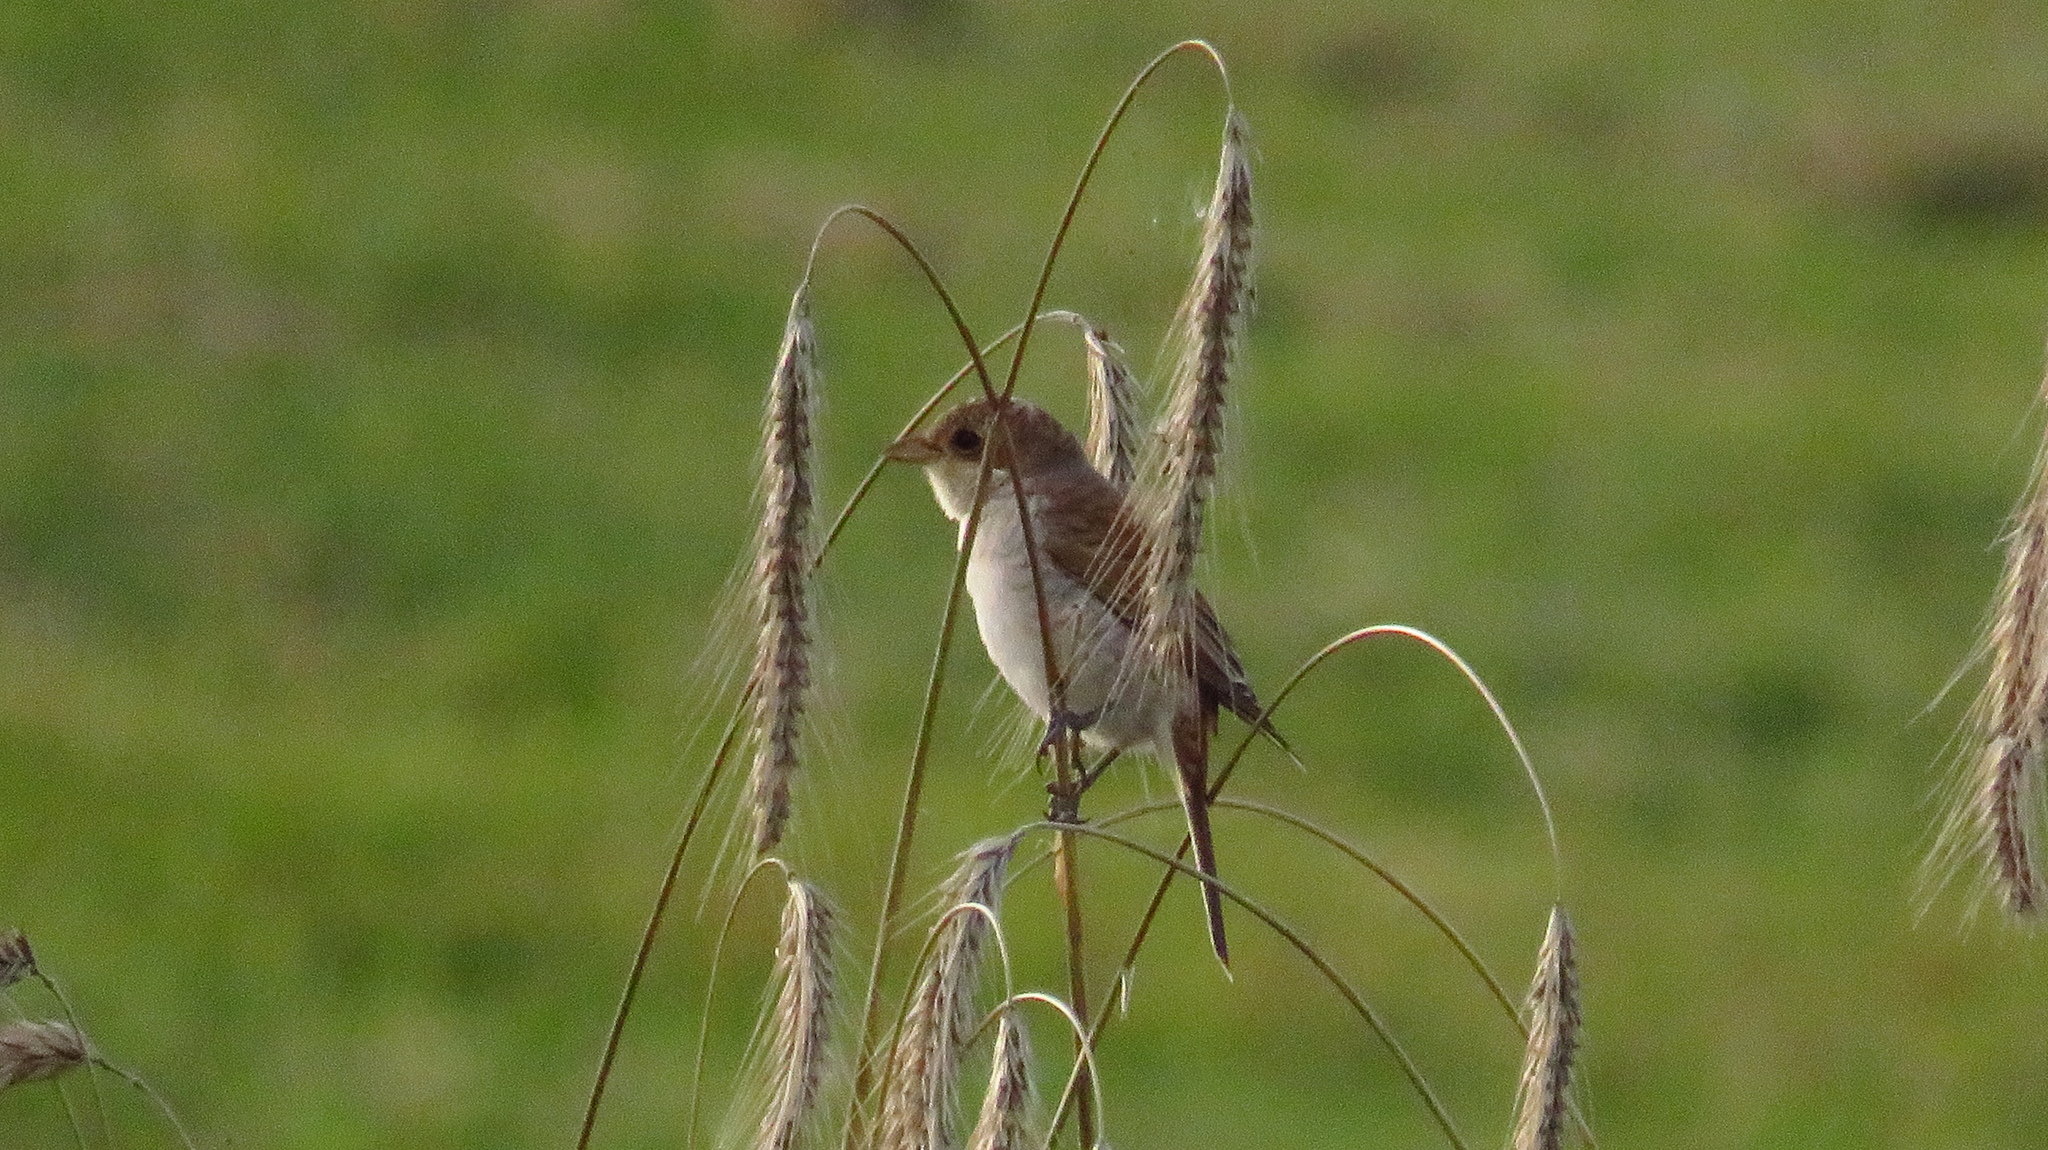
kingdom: Animalia
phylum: Chordata
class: Aves
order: Passeriformes
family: Laniidae
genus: Lanius
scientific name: Lanius collurio
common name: Red-backed shrike
